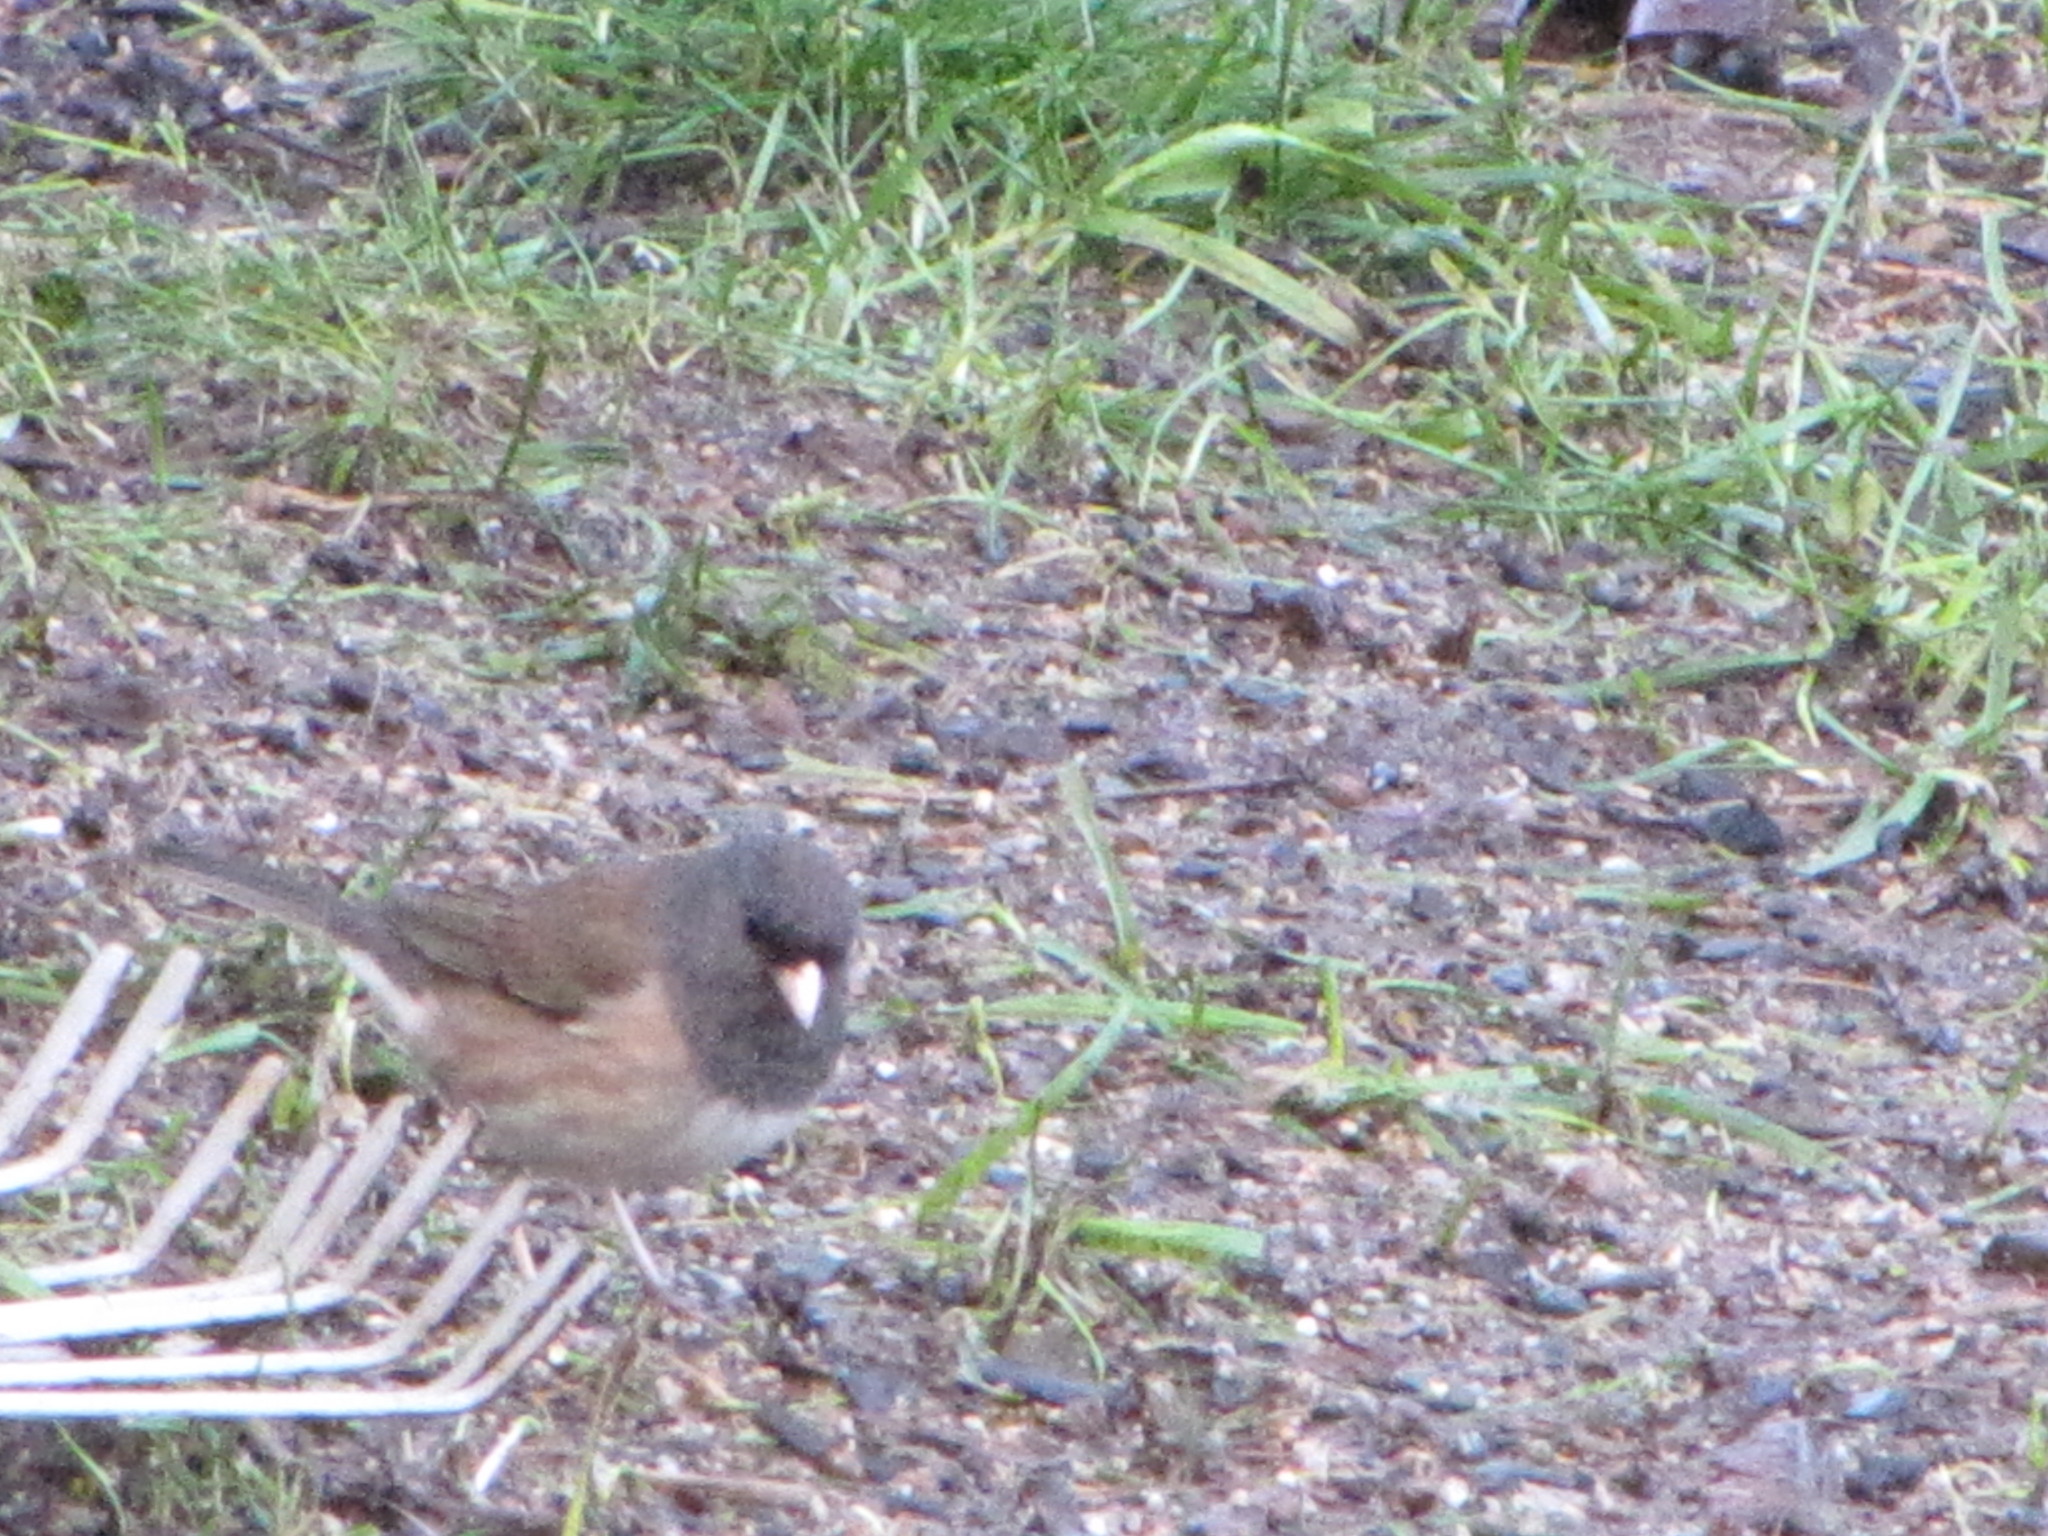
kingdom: Animalia
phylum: Chordata
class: Aves
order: Passeriformes
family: Passerellidae
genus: Junco
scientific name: Junco hyemalis
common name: Dark-eyed junco
